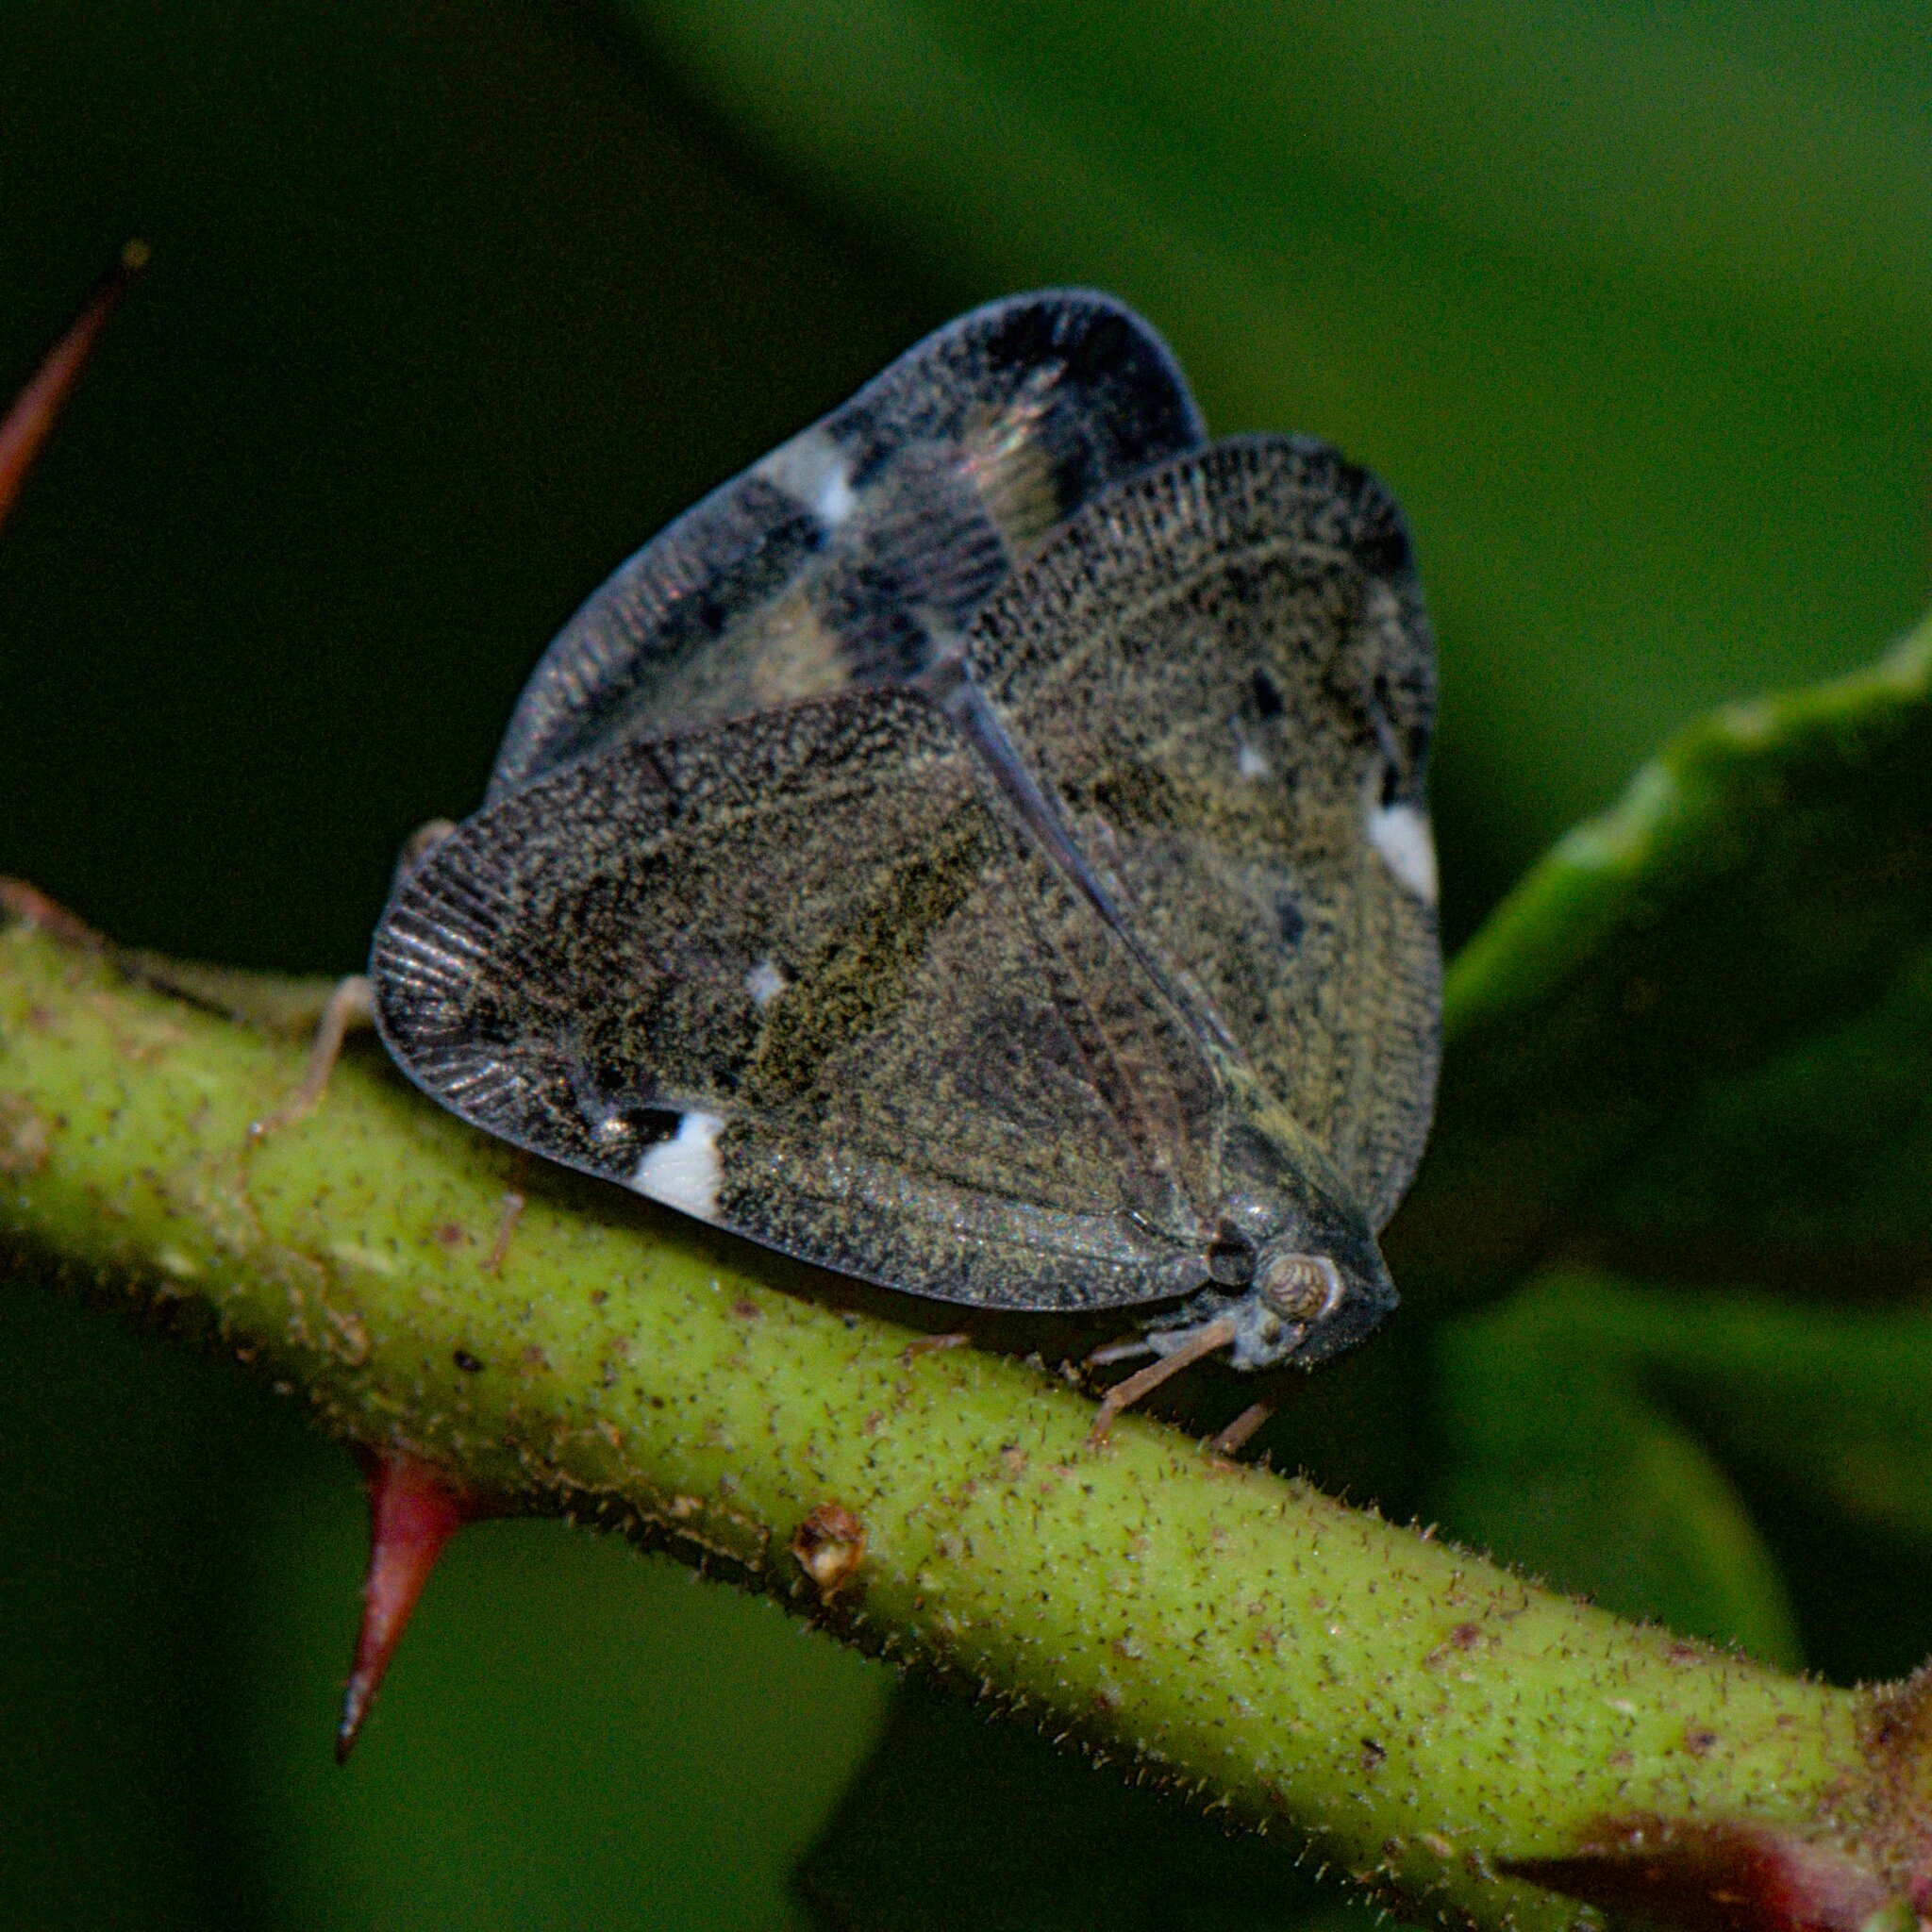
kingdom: Animalia
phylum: Arthropoda
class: Insecta
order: Hemiptera
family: Ricaniidae
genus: Ricania
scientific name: Ricania obliqua
